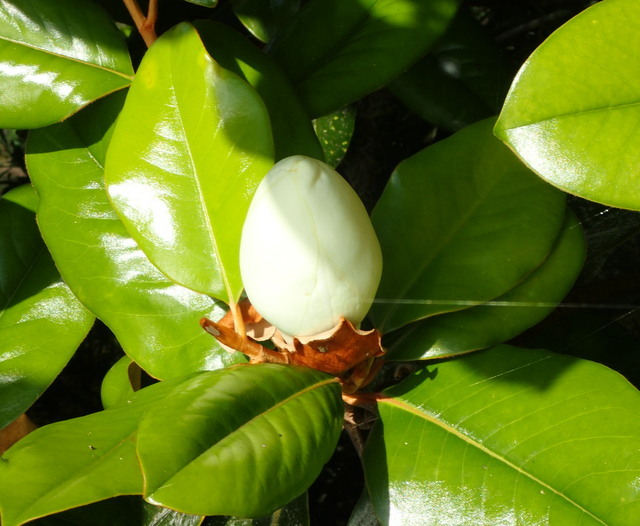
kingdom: Plantae
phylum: Tracheophyta
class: Magnoliopsida
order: Magnoliales
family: Magnoliaceae
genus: Magnolia
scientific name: Magnolia grandiflora
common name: Southern magnolia
